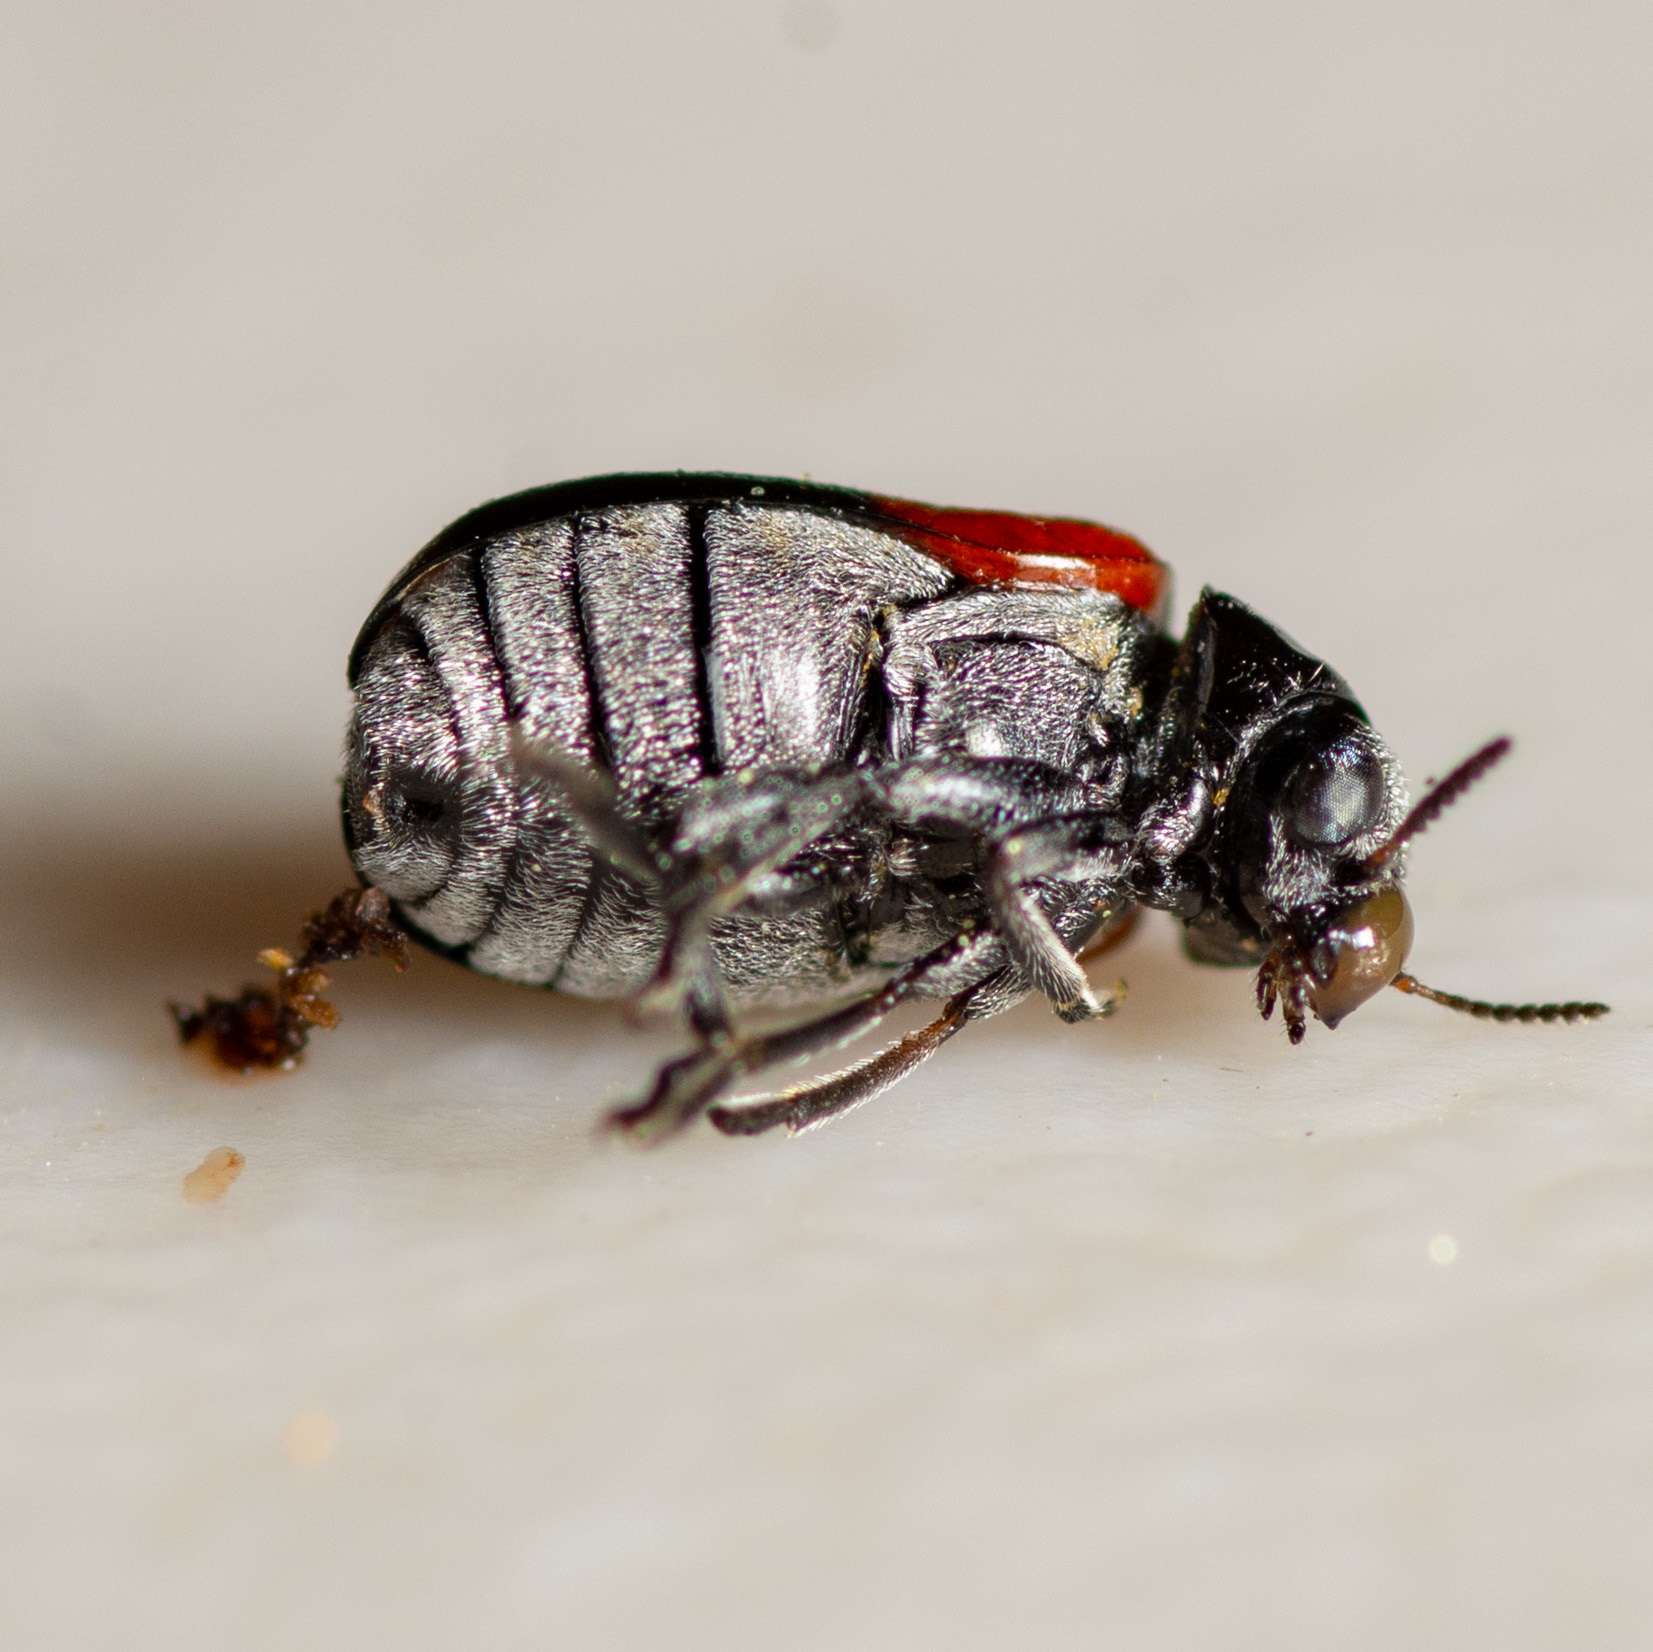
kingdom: Animalia
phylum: Arthropoda
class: Insecta
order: Coleoptera
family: Chrysomelidae
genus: Smaragdina
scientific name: Smaragdina militaris
